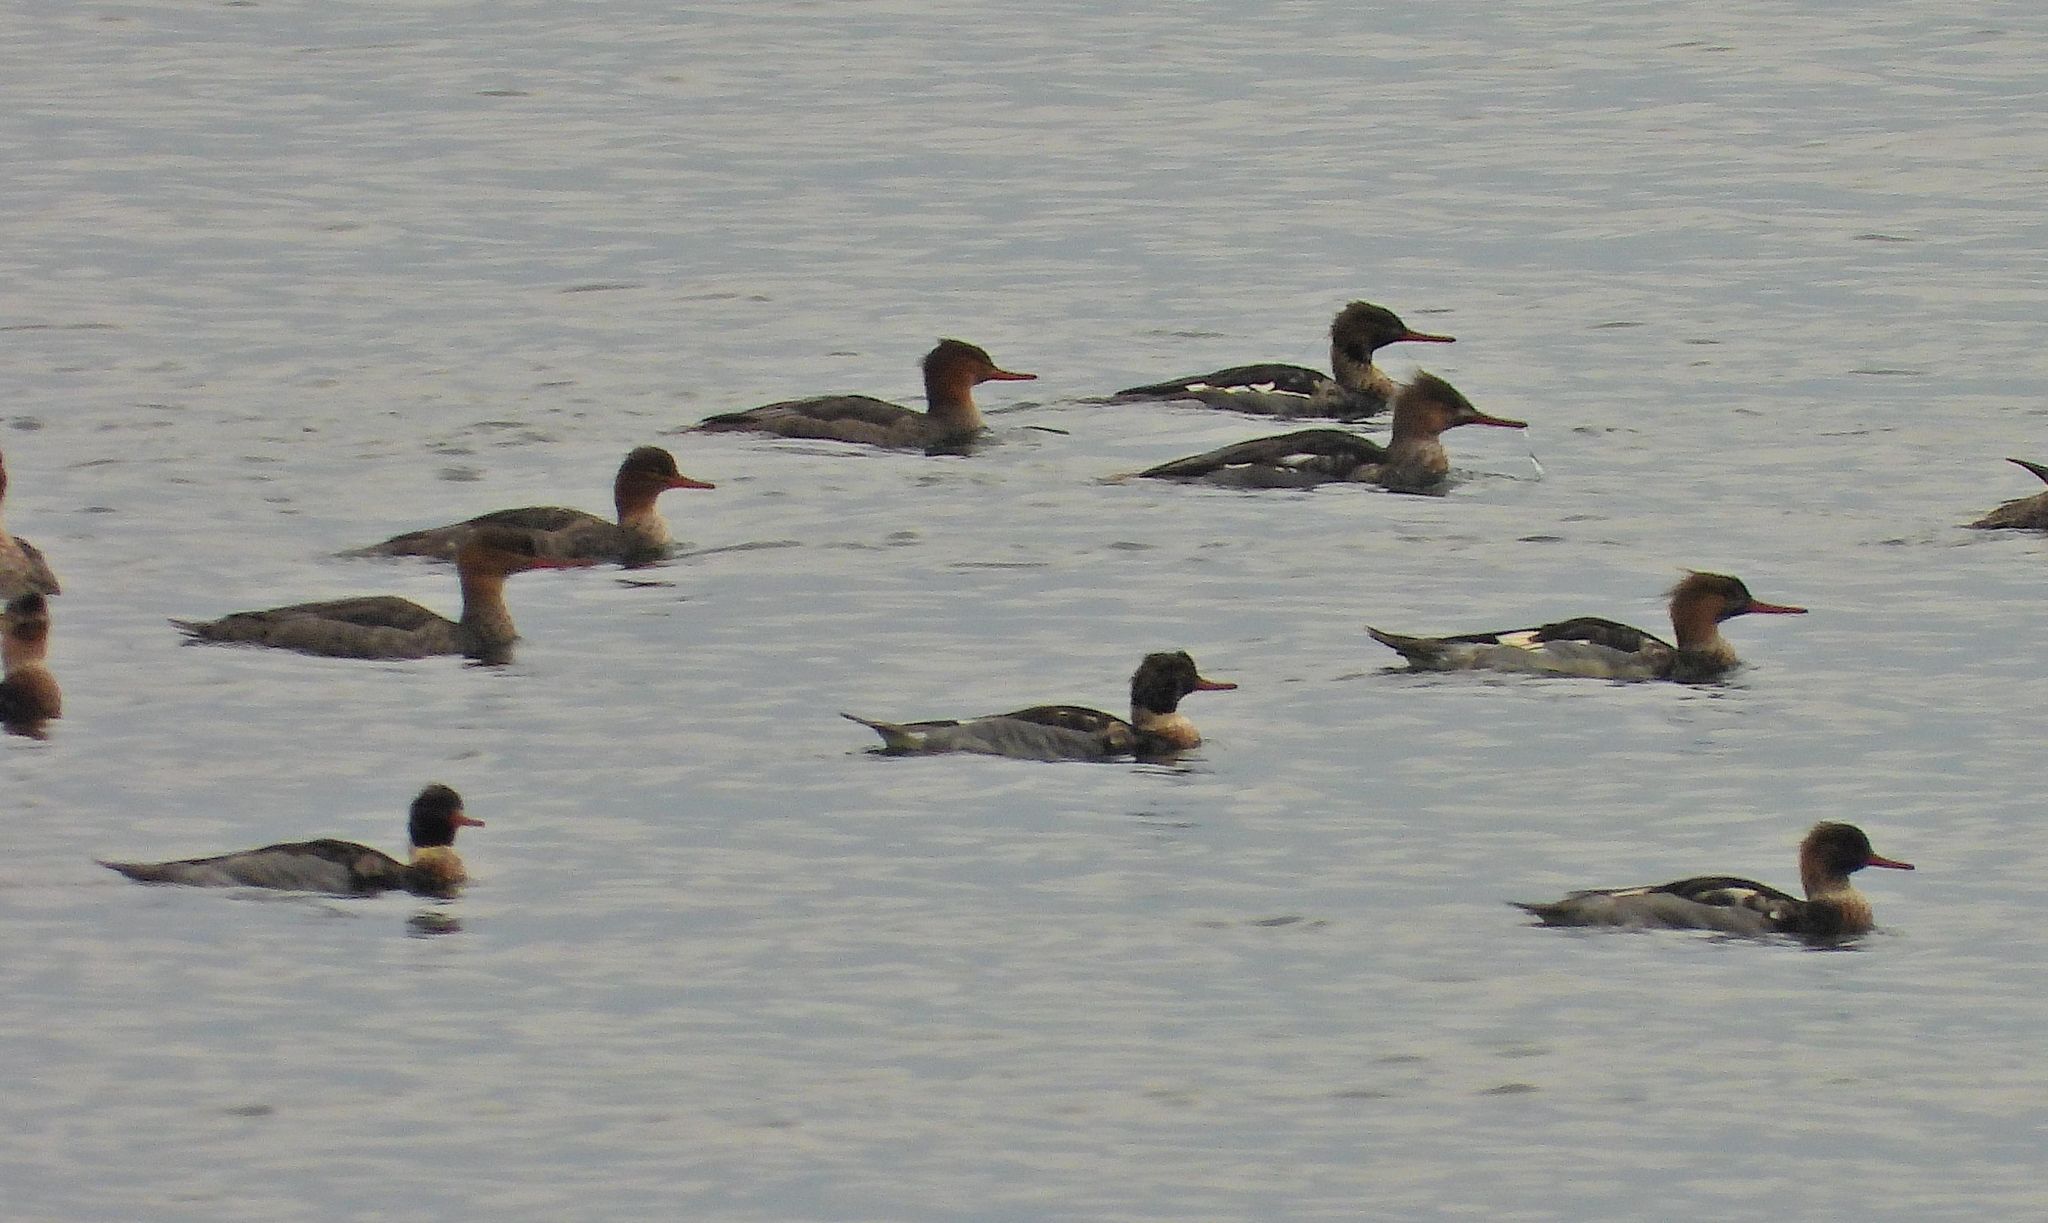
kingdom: Animalia
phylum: Chordata
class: Aves
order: Anseriformes
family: Anatidae
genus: Mergus
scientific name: Mergus serrator
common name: Red-breasted merganser
